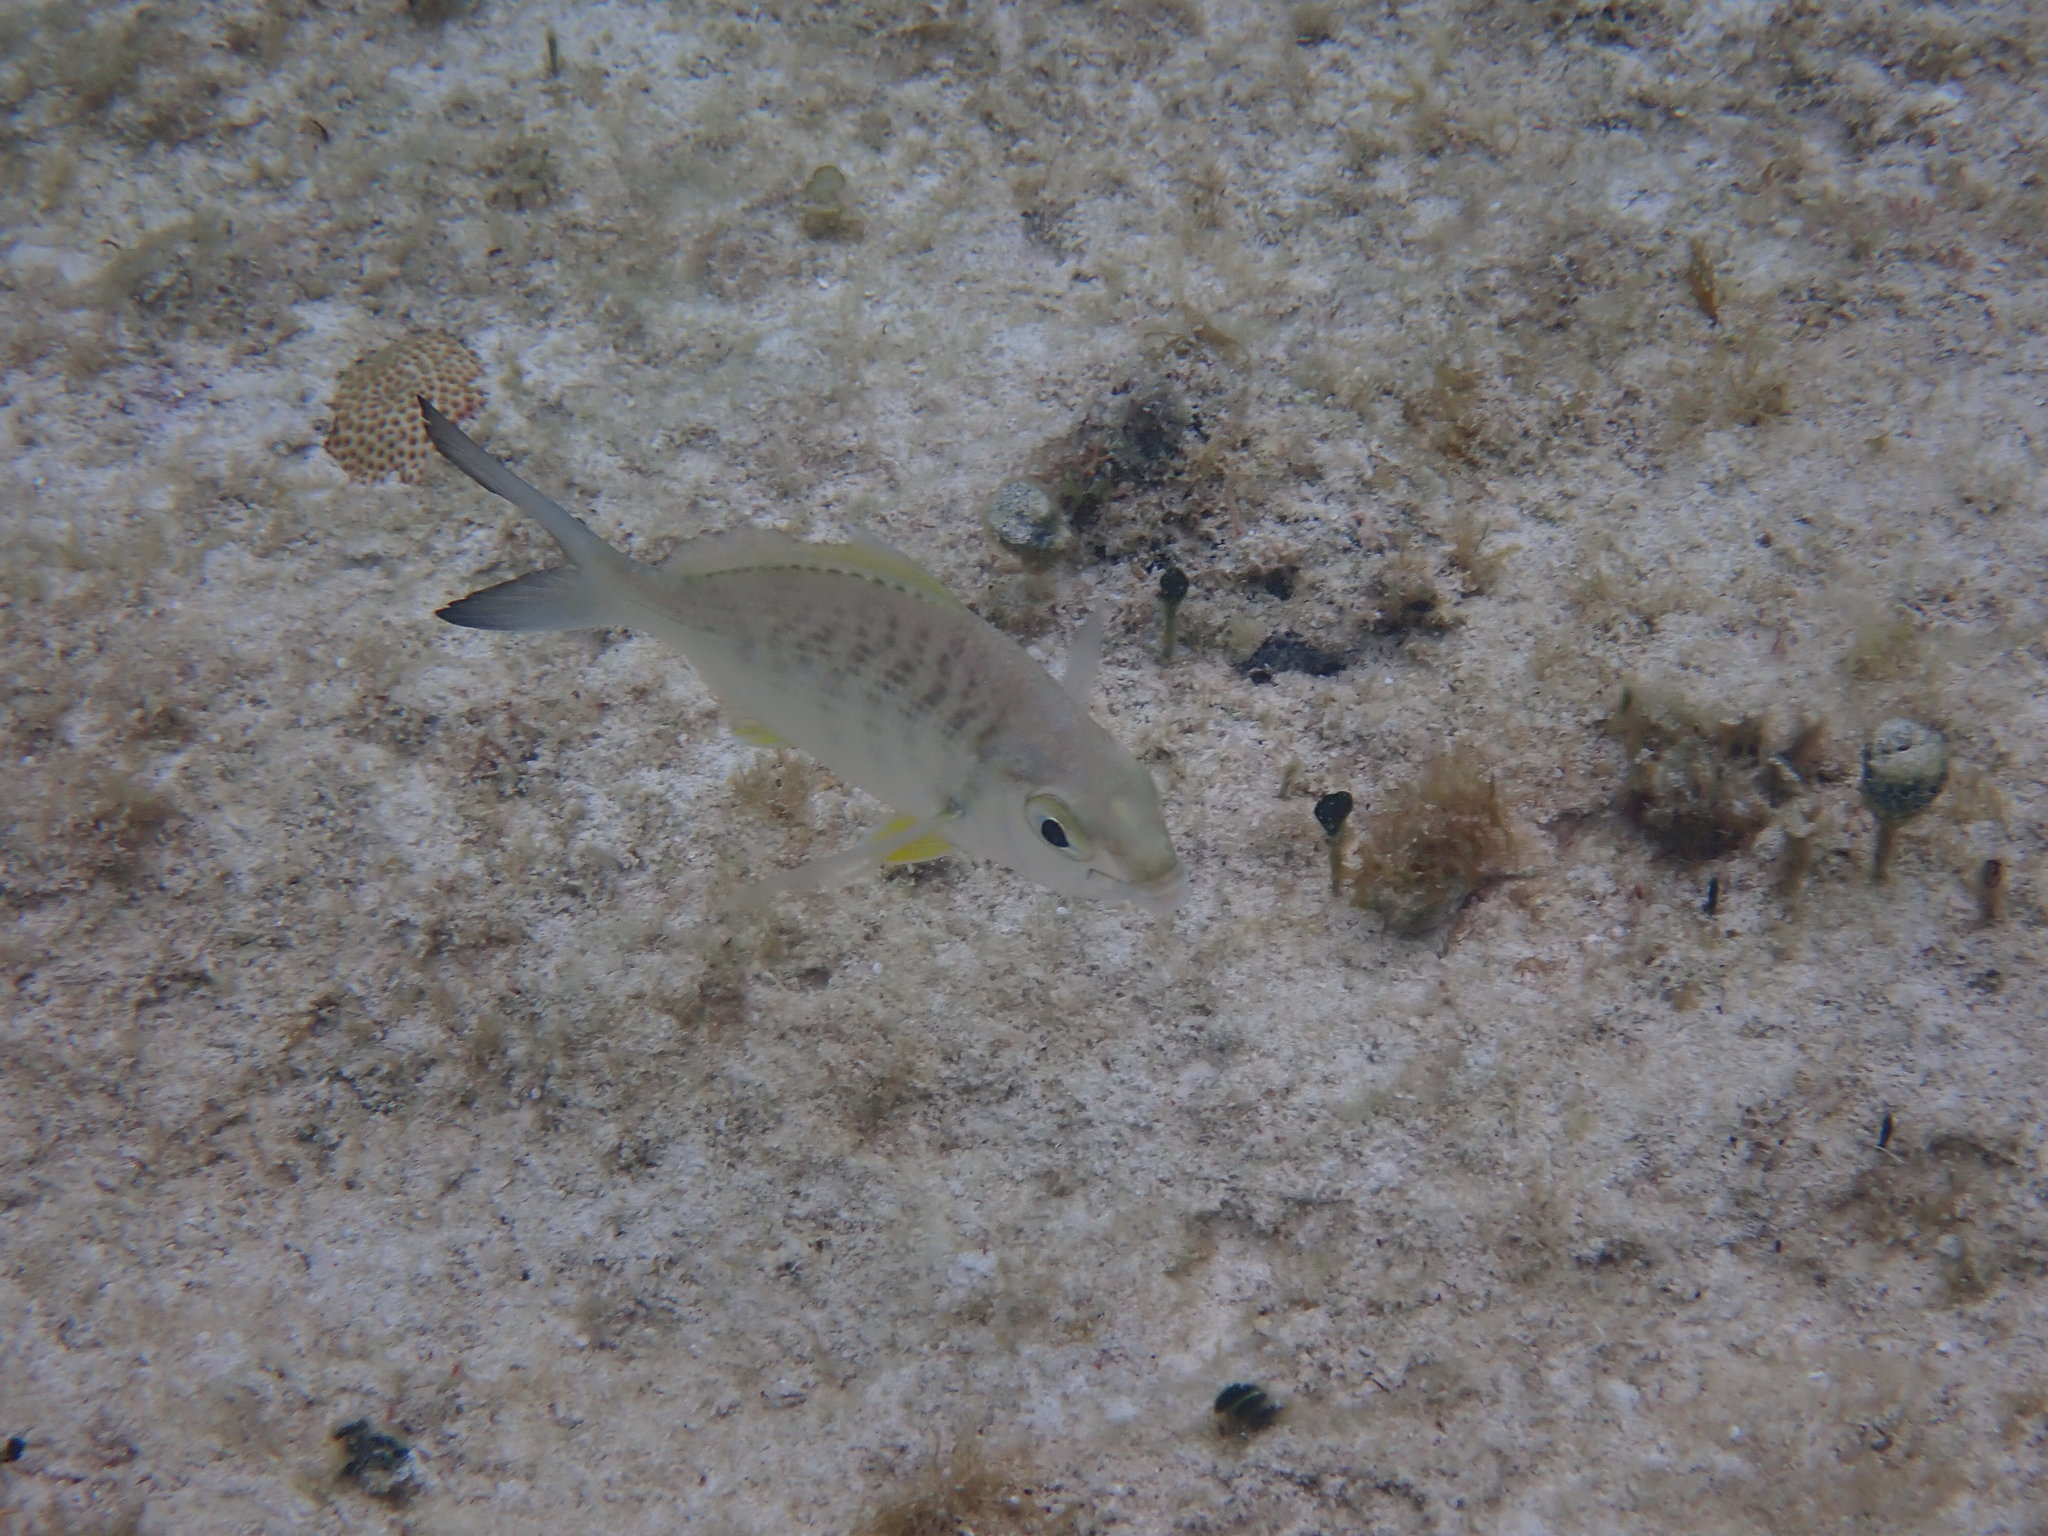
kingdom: Animalia
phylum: Chordata
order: Perciformes
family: Gerreidae
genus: Gerres
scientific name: Gerres cinereus
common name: Hedow
